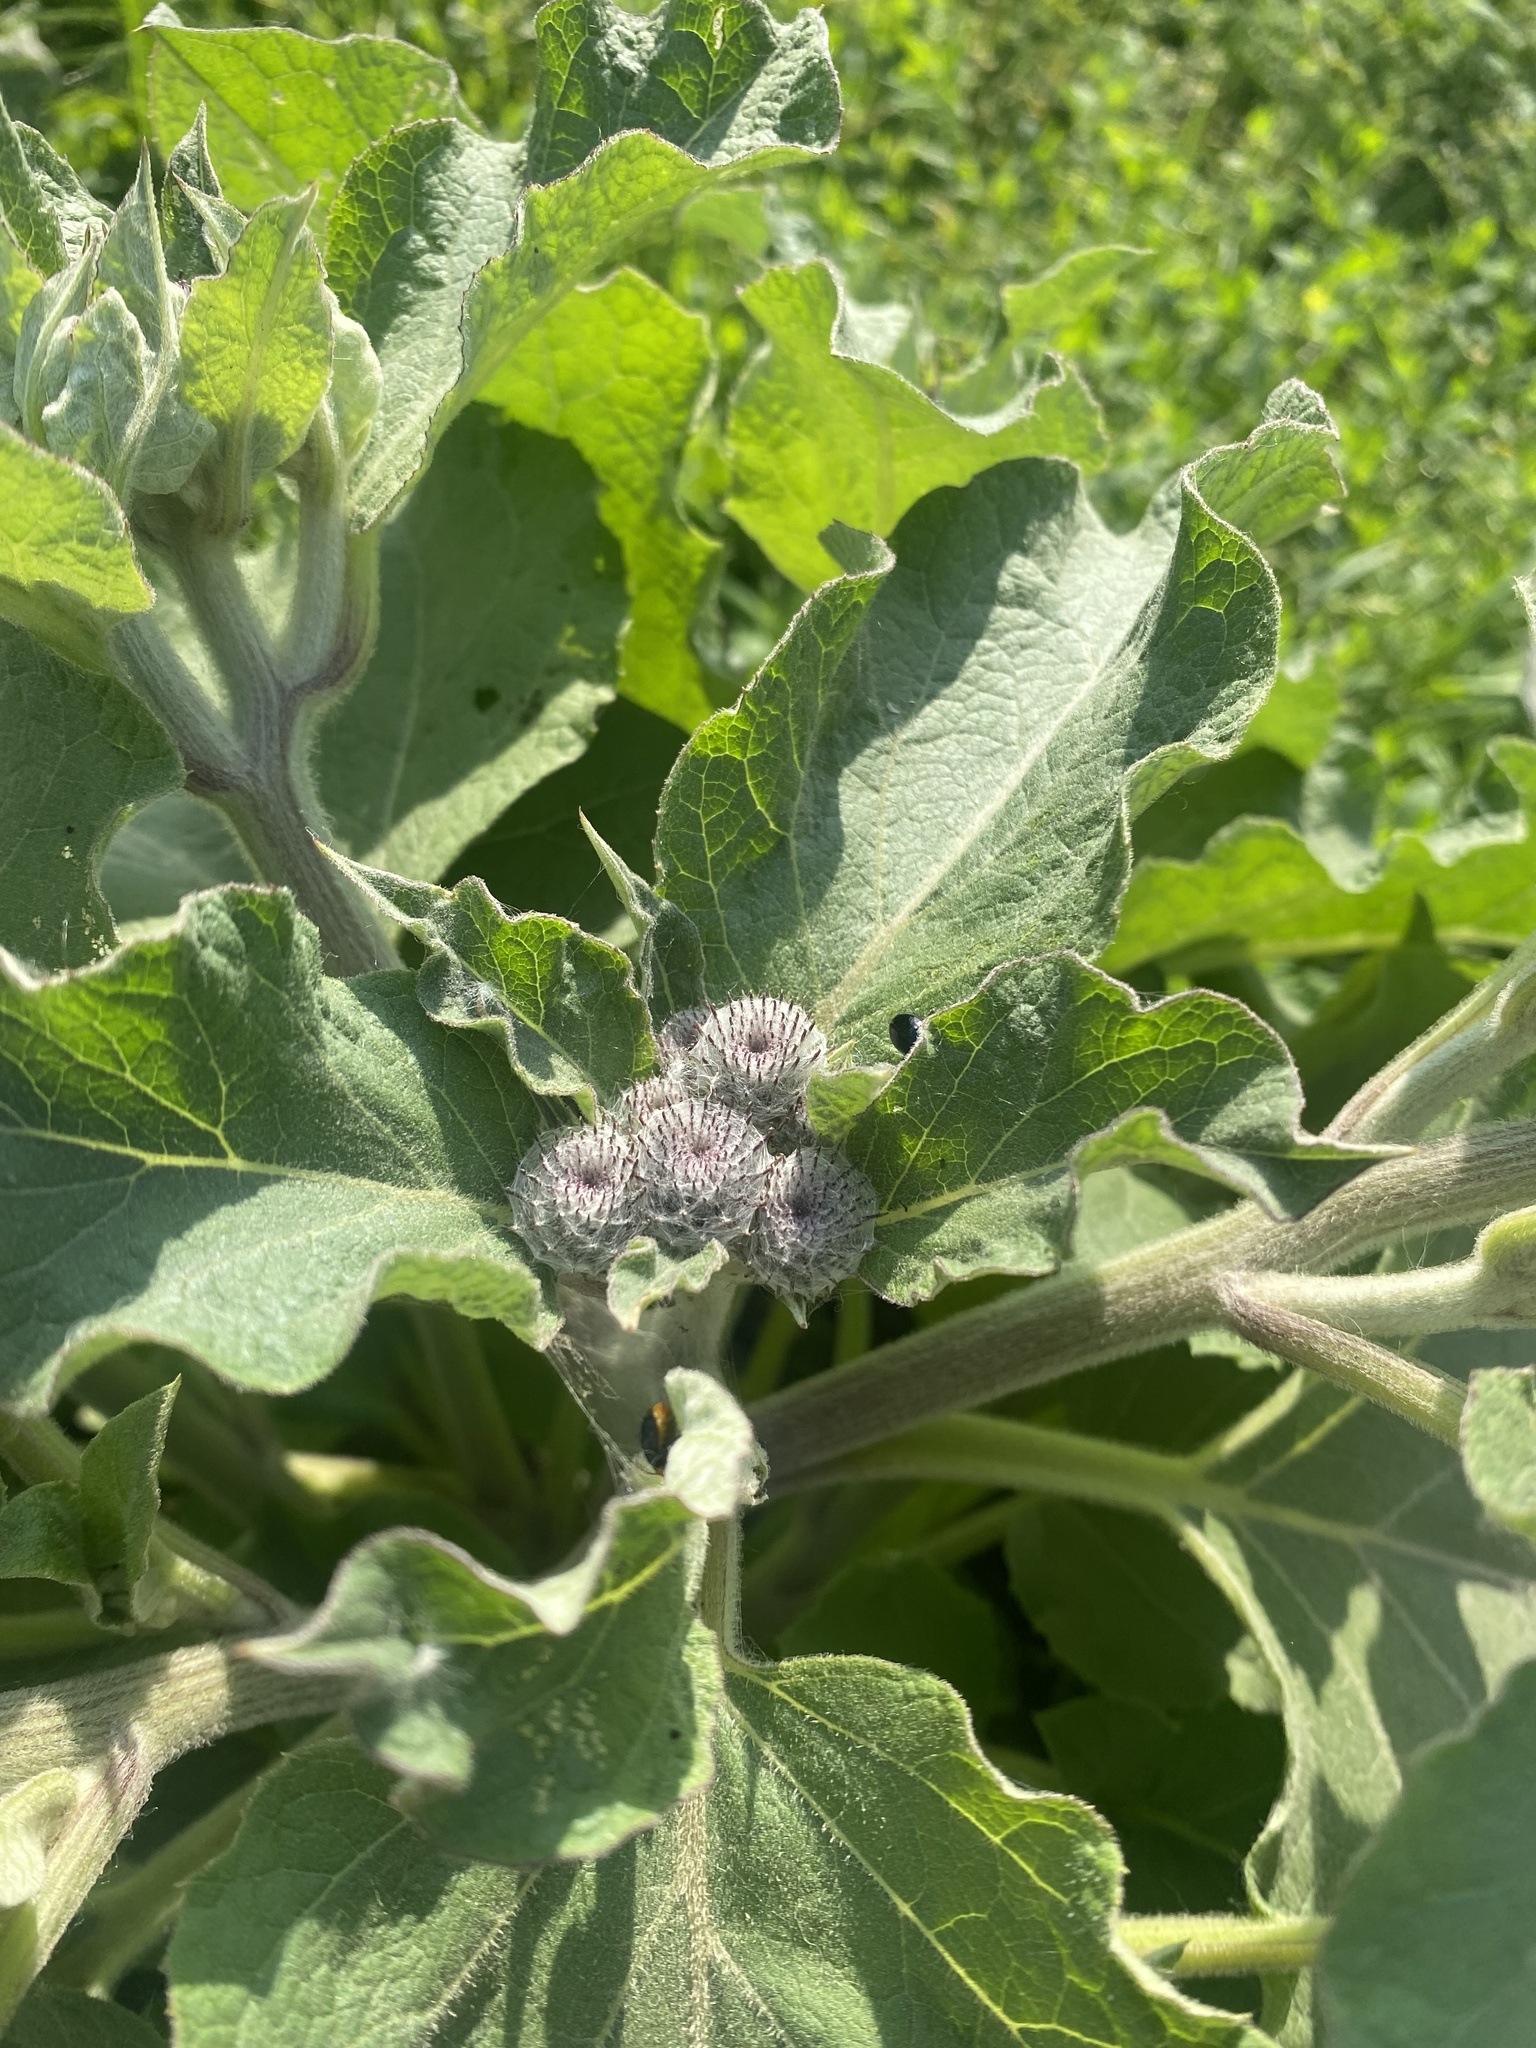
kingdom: Plantae
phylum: Tracheophyta
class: Magnoliopsida
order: Asterales
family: Asteraceae
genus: Arctium
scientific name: Arctium tomentosum
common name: Woolly burdock
